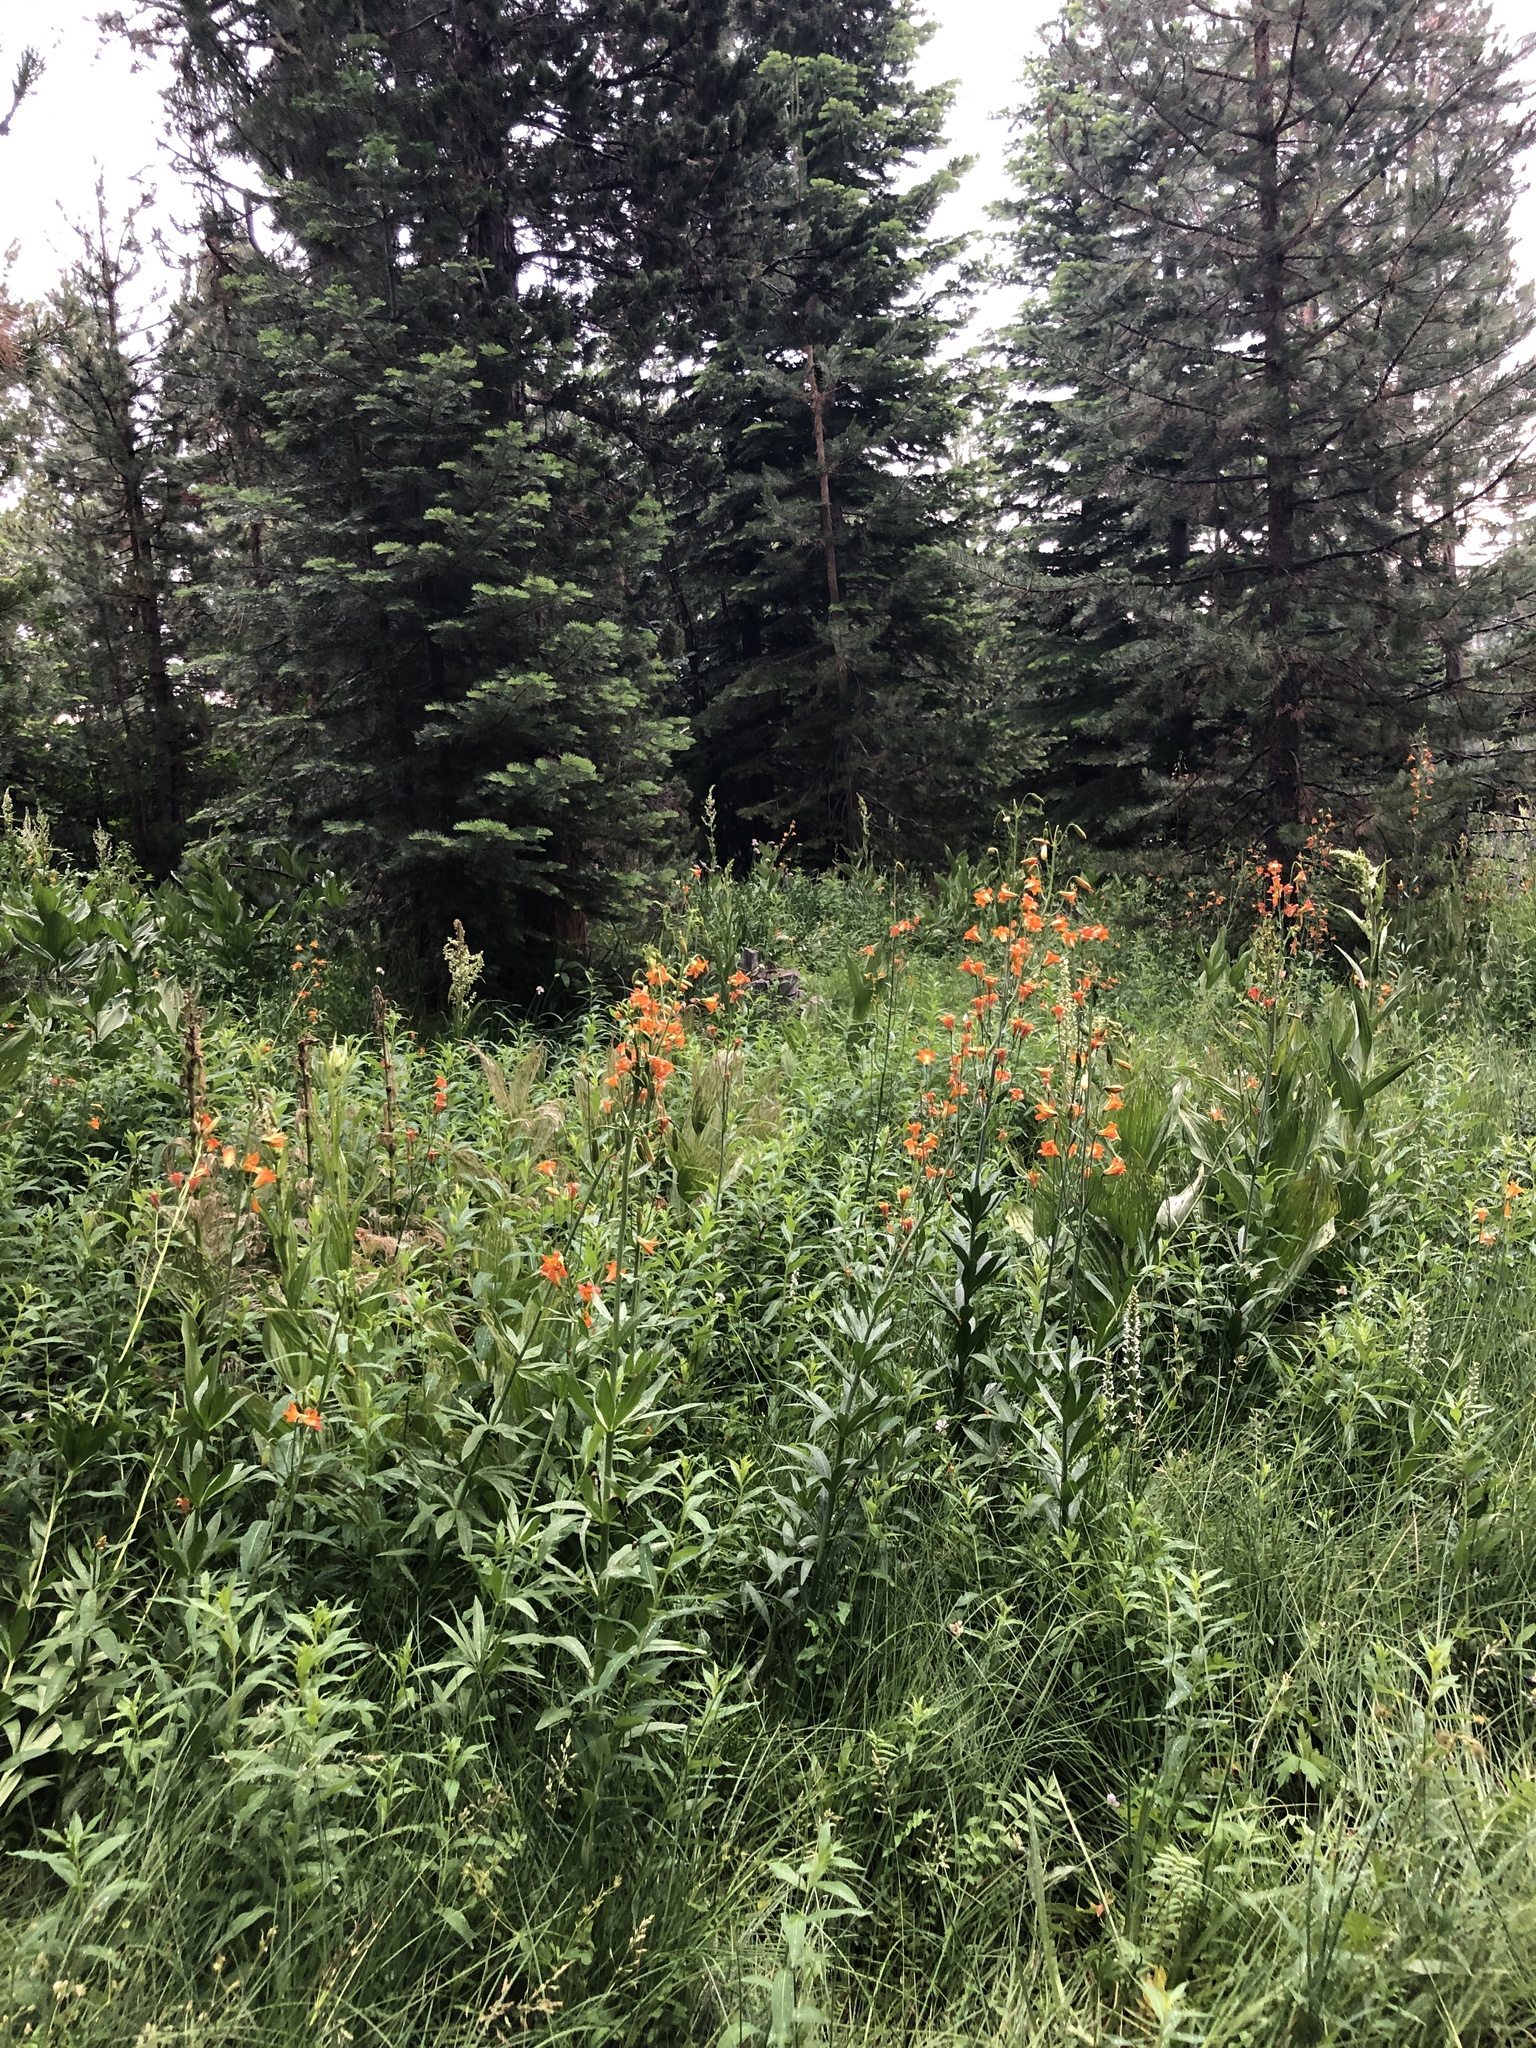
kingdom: Plantae
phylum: Tracheophyta
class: Liliopsida
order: Liliales
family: Liliaceae
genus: Lilium
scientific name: Lilium parvum
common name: Alpine lily
